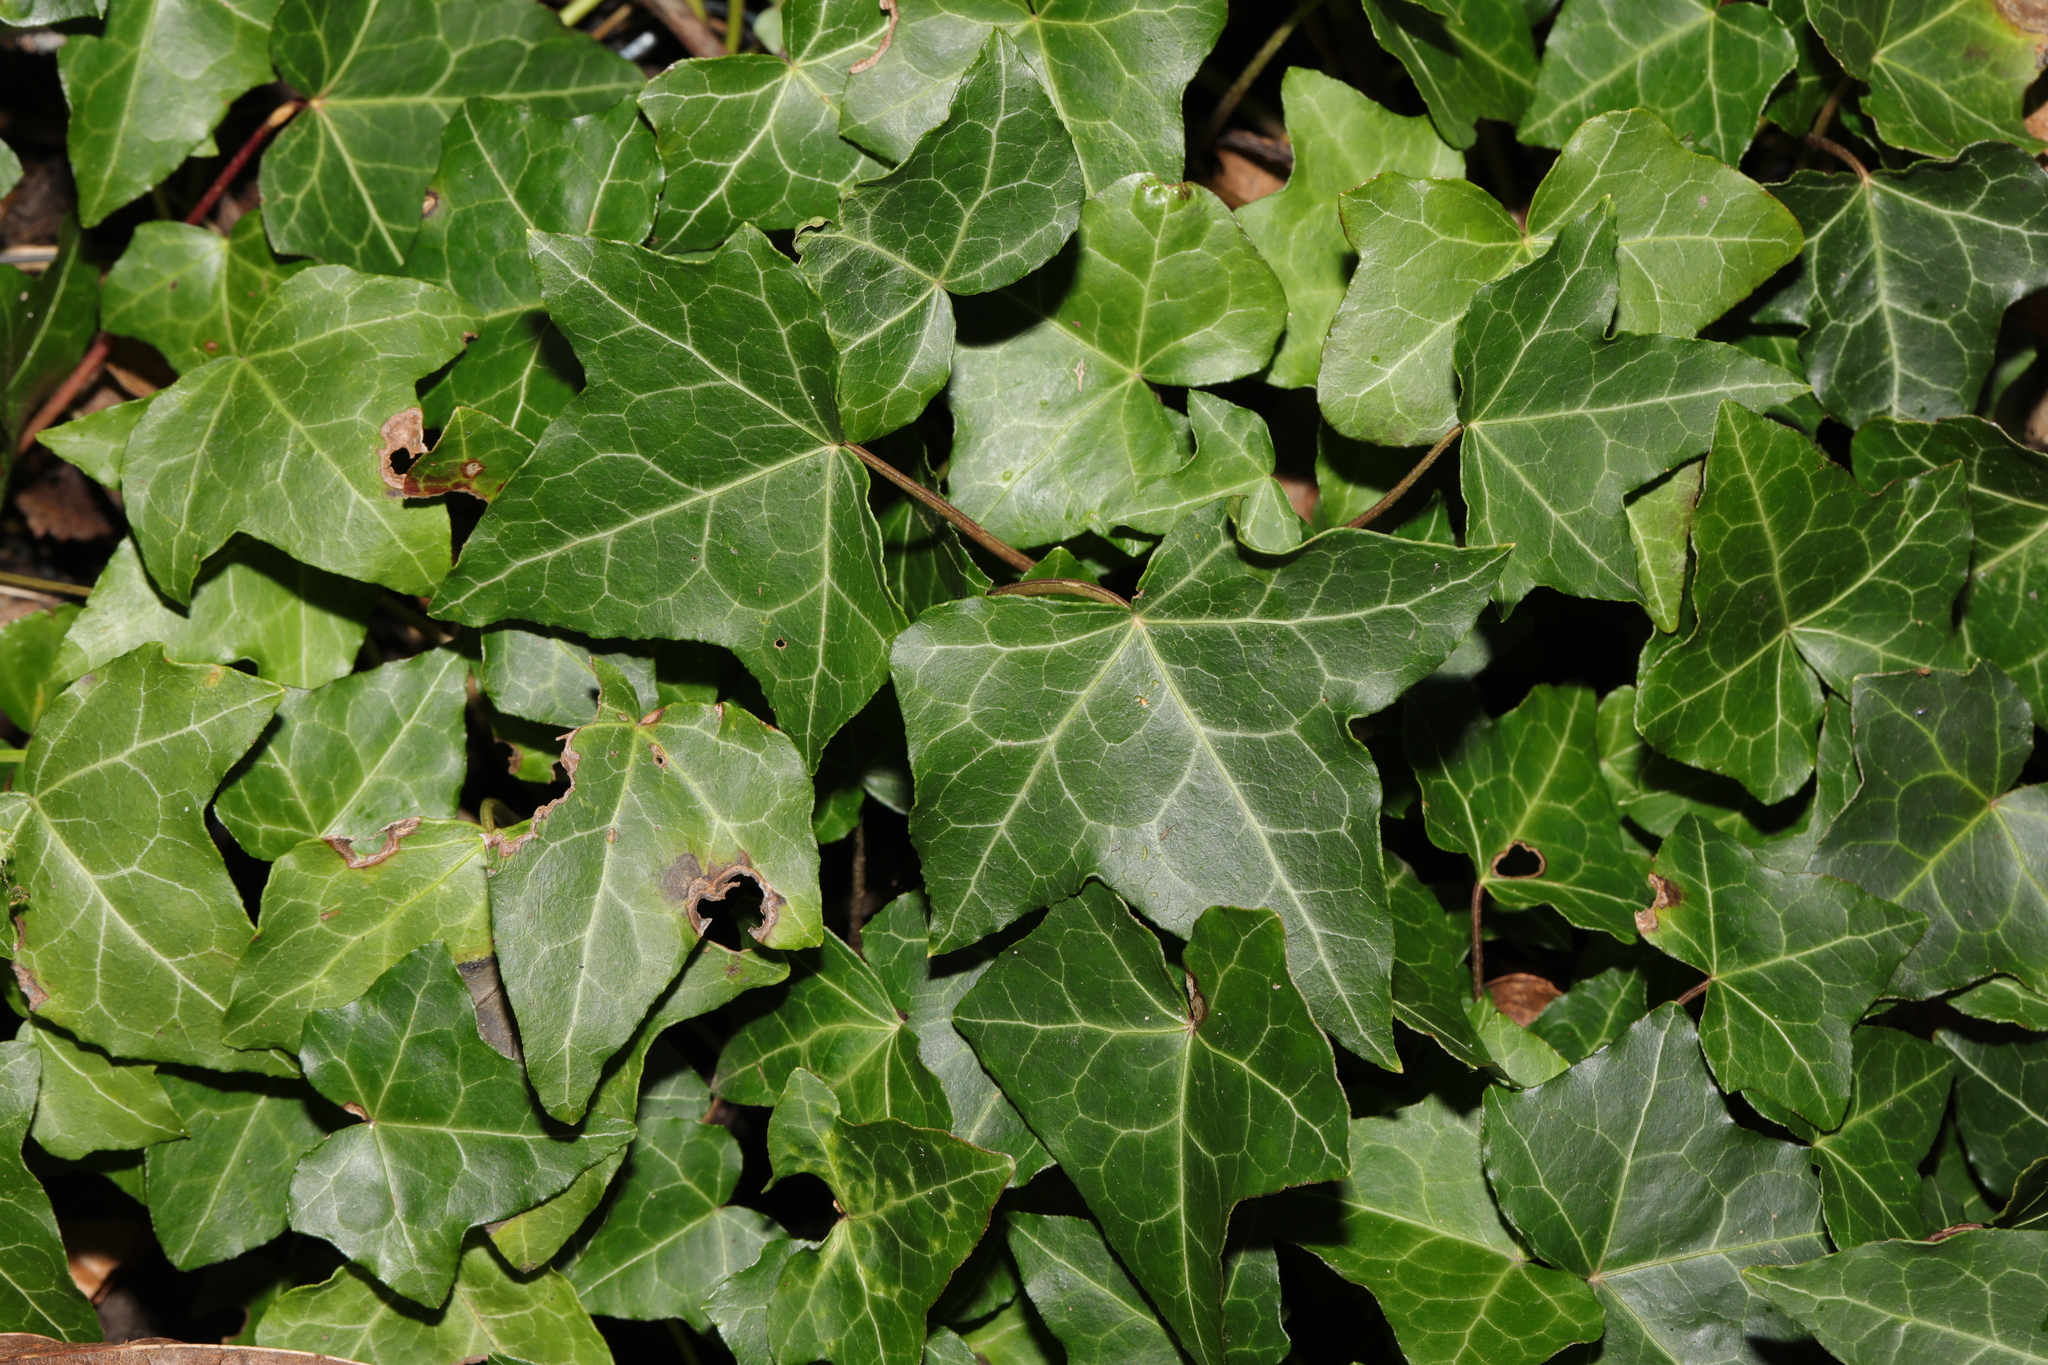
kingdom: Plantae
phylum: Tracheophyta
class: Magnoliopsida
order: Apiales
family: Araliaceae
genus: Hedera
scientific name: Hedera helix
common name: Ivy
